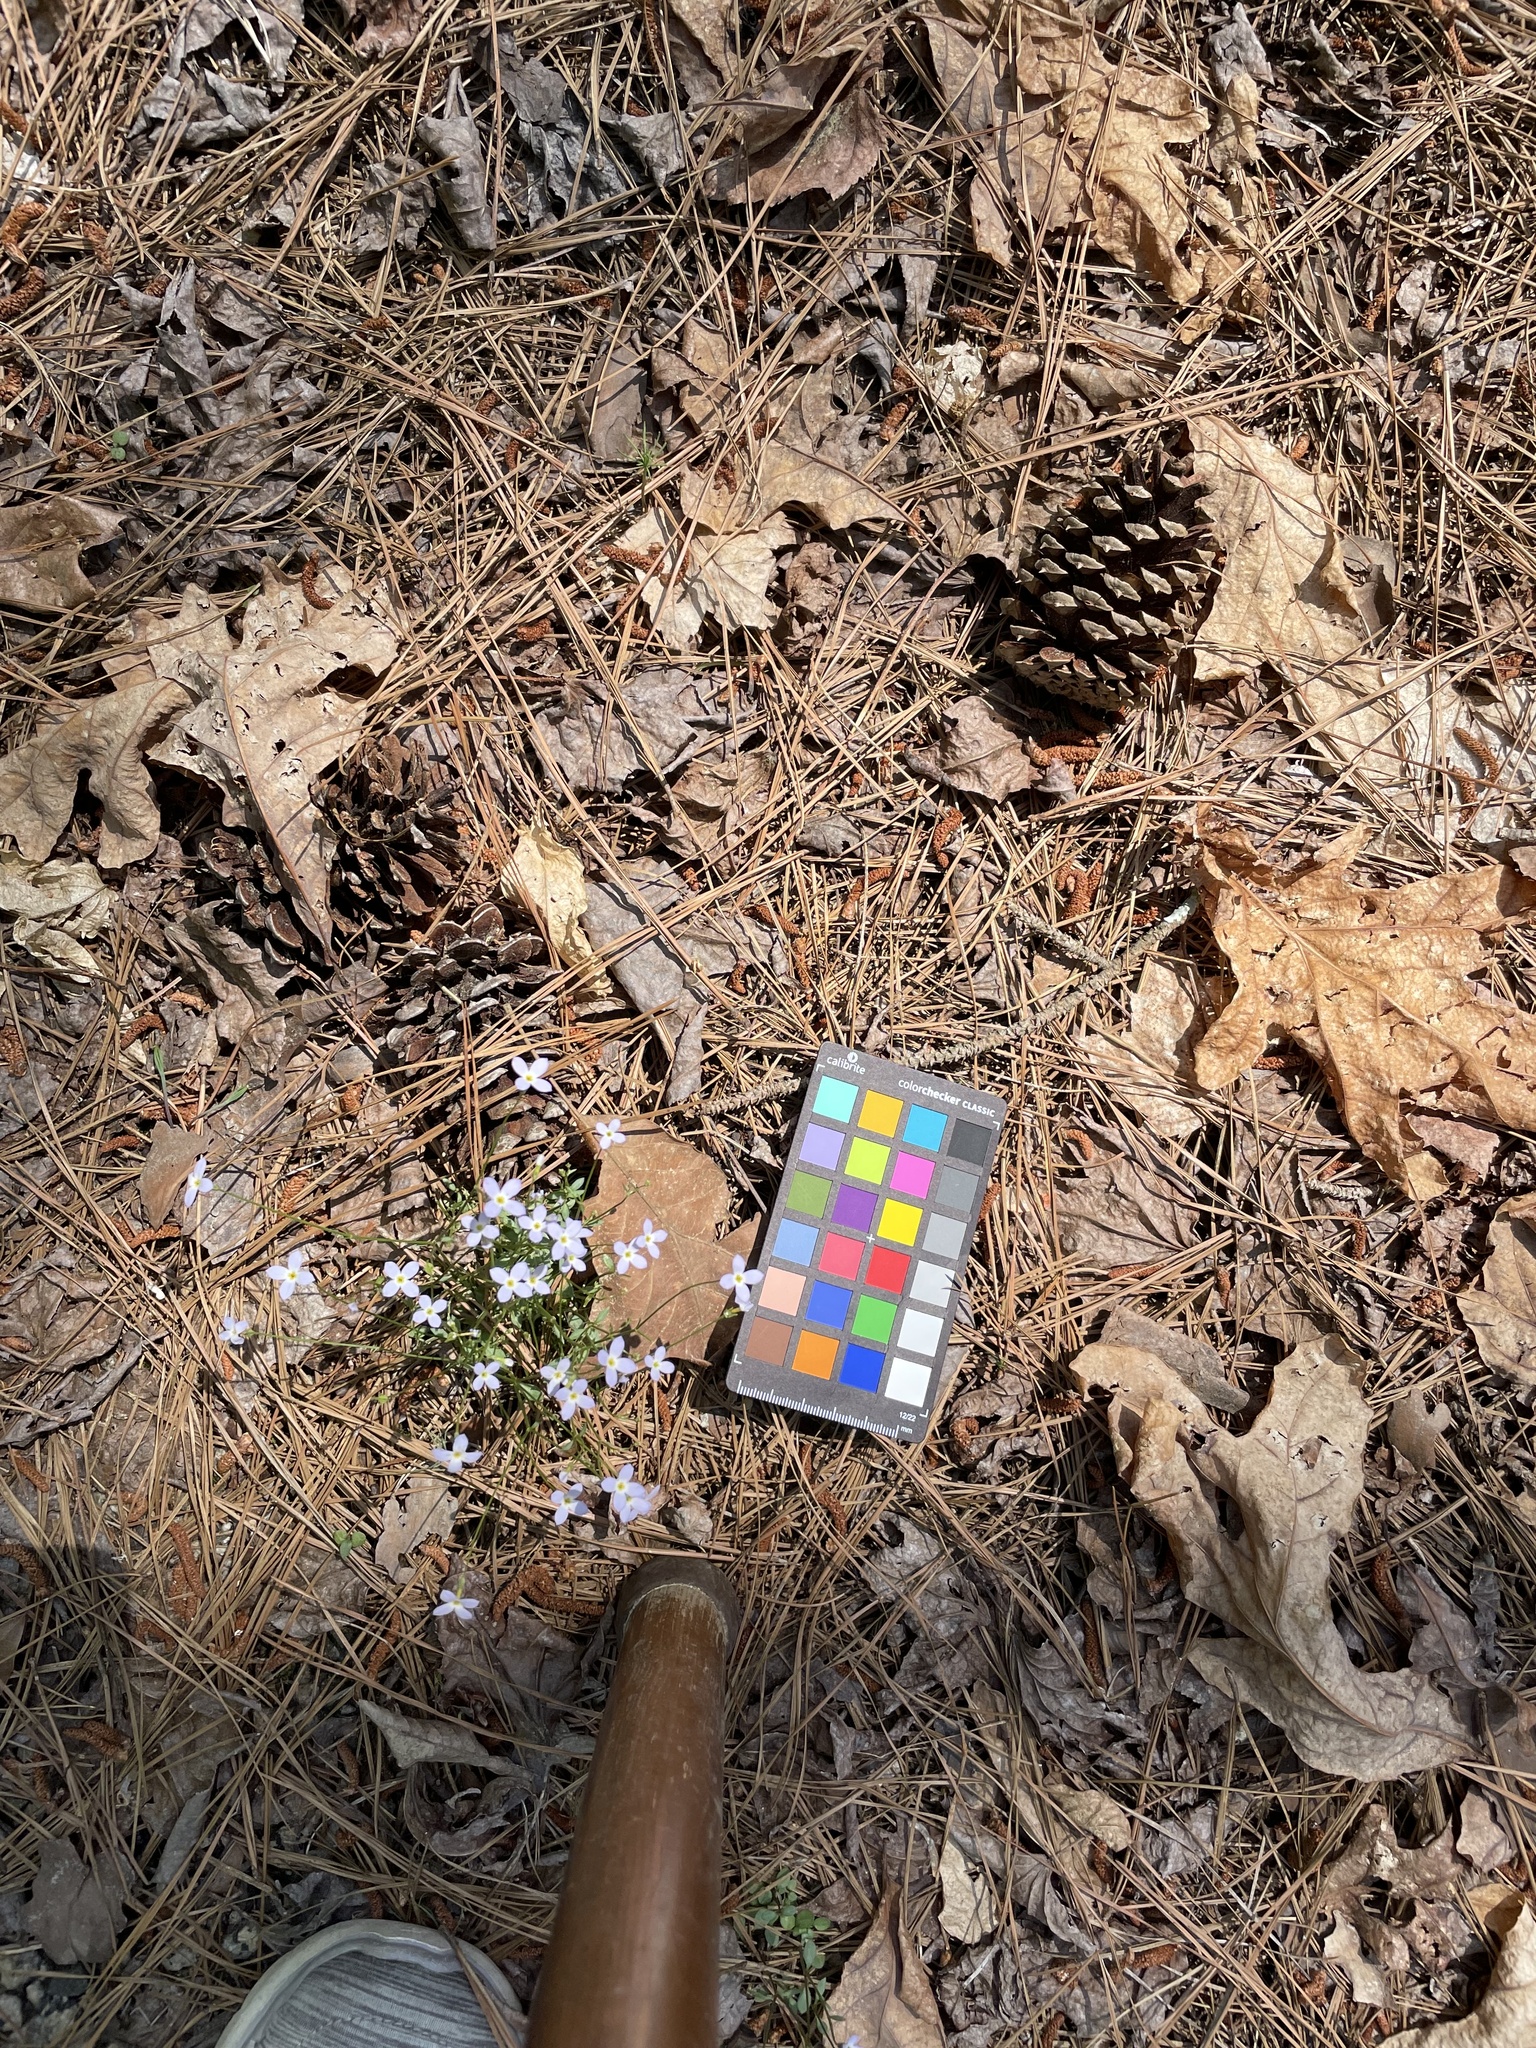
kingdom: Plantae
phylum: Tracheophyta
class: Magnoliopsida
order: Gentianales
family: Rubiaceae
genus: Houstonia
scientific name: Houstonia caerulea
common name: Bluets
